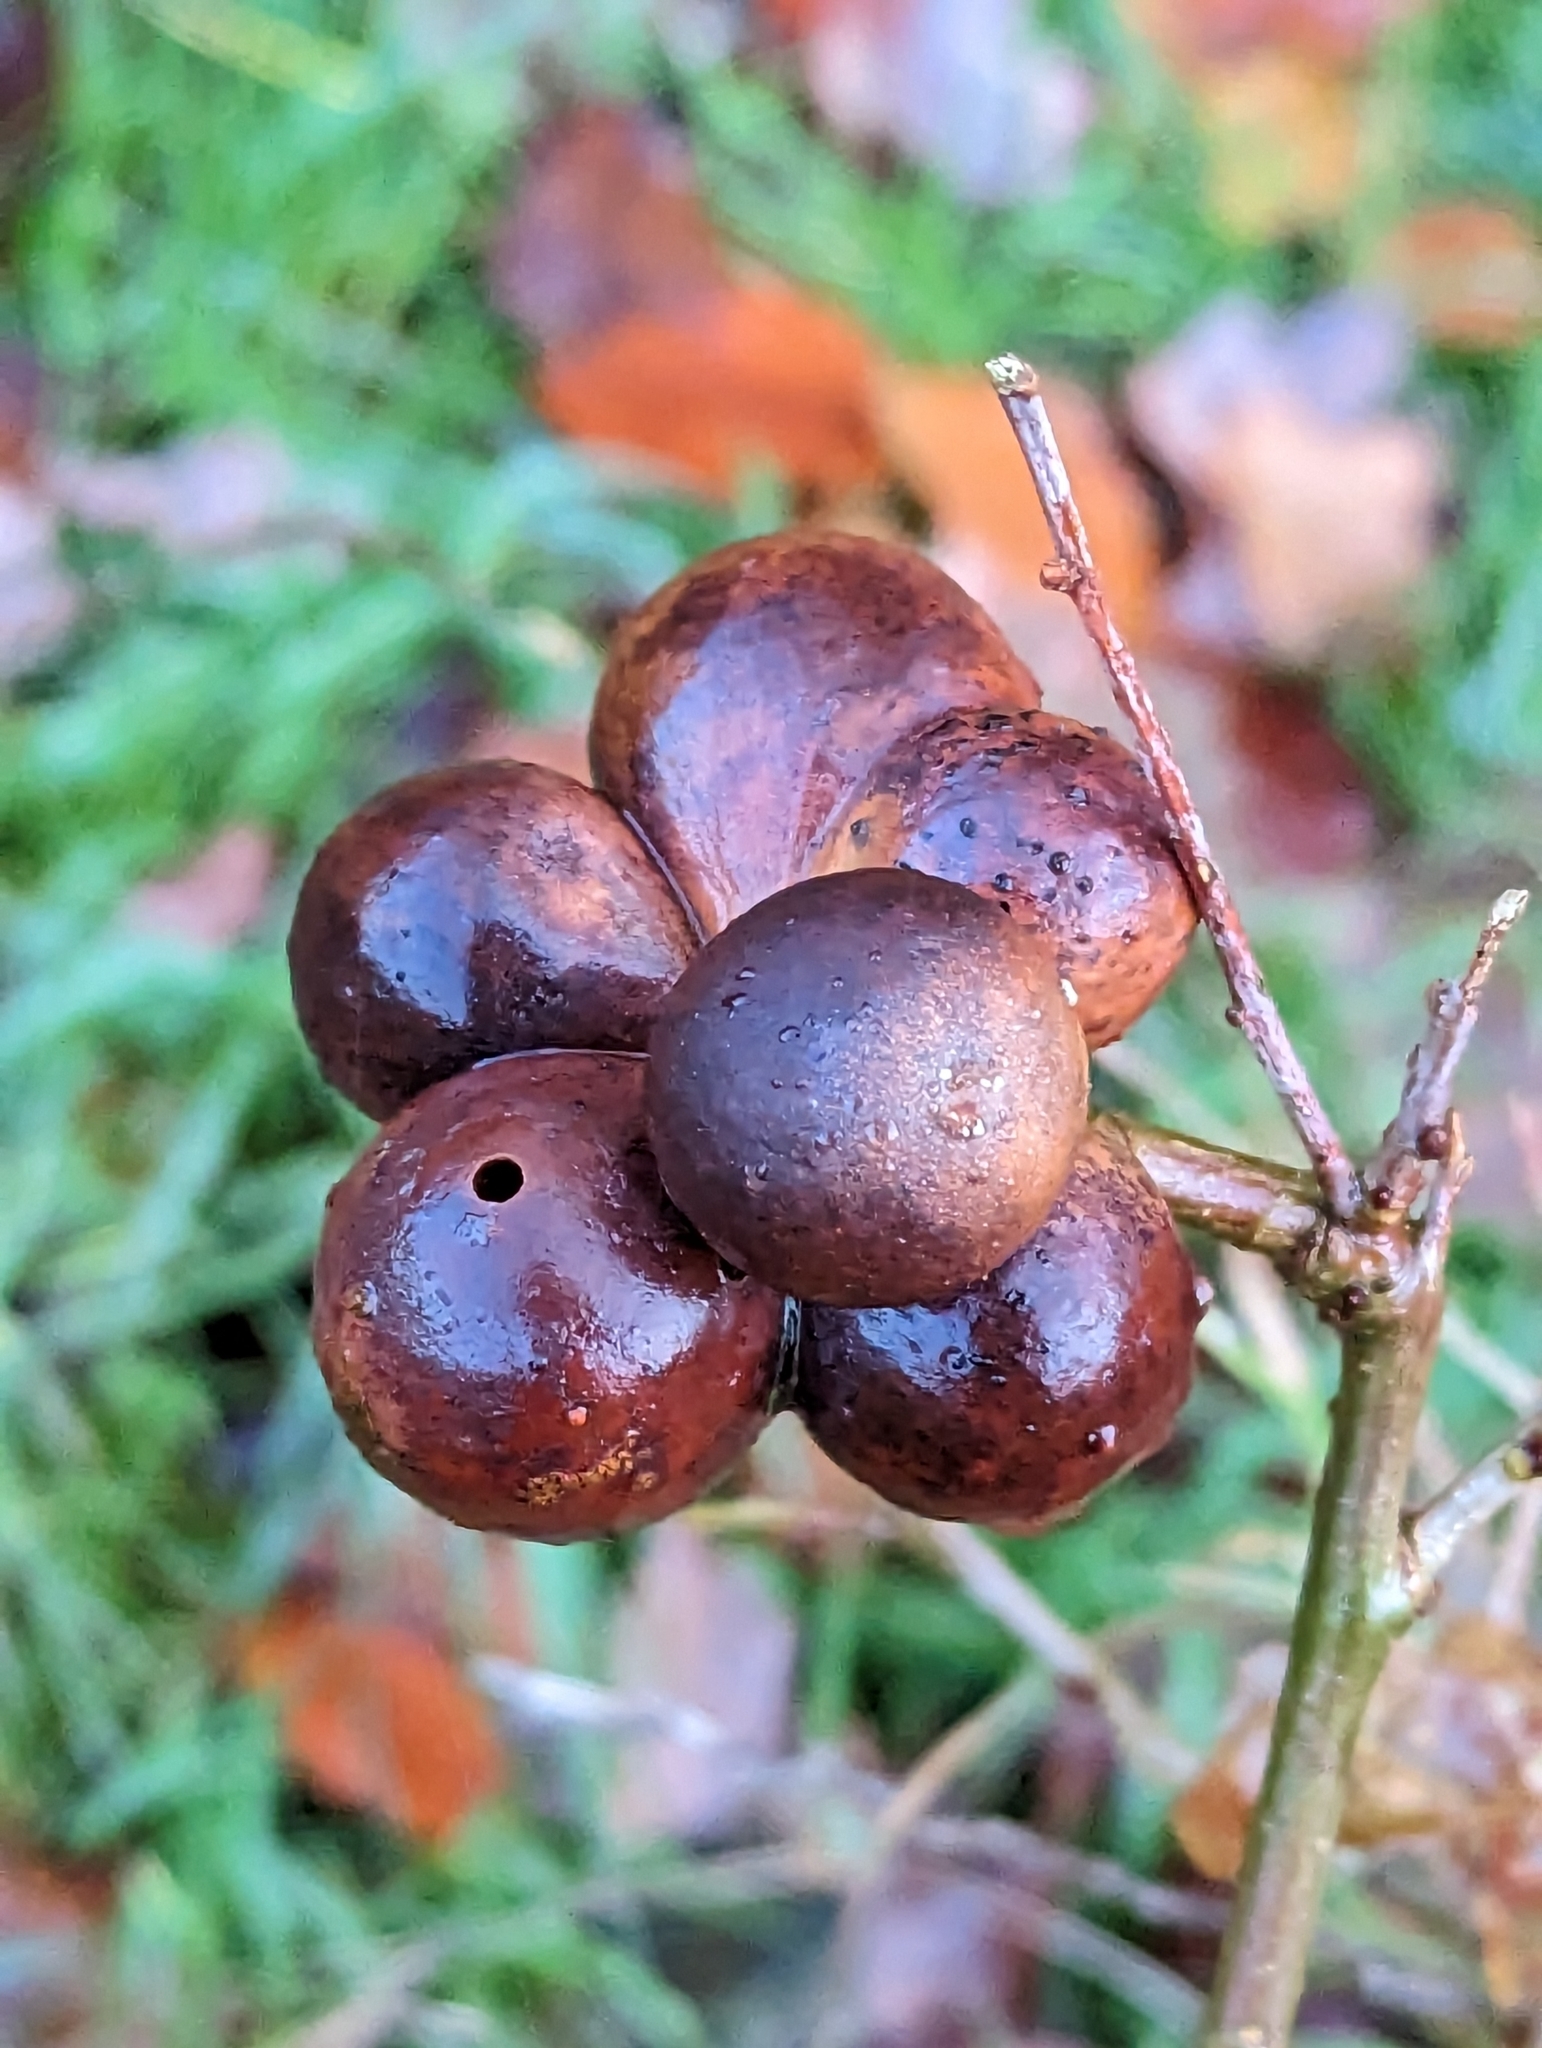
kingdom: Animalia
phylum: Arthropoda
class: Insecta
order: Hymenoptera
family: Cynipidae
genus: Andricus
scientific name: Andricus kollari
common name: Marble gall
